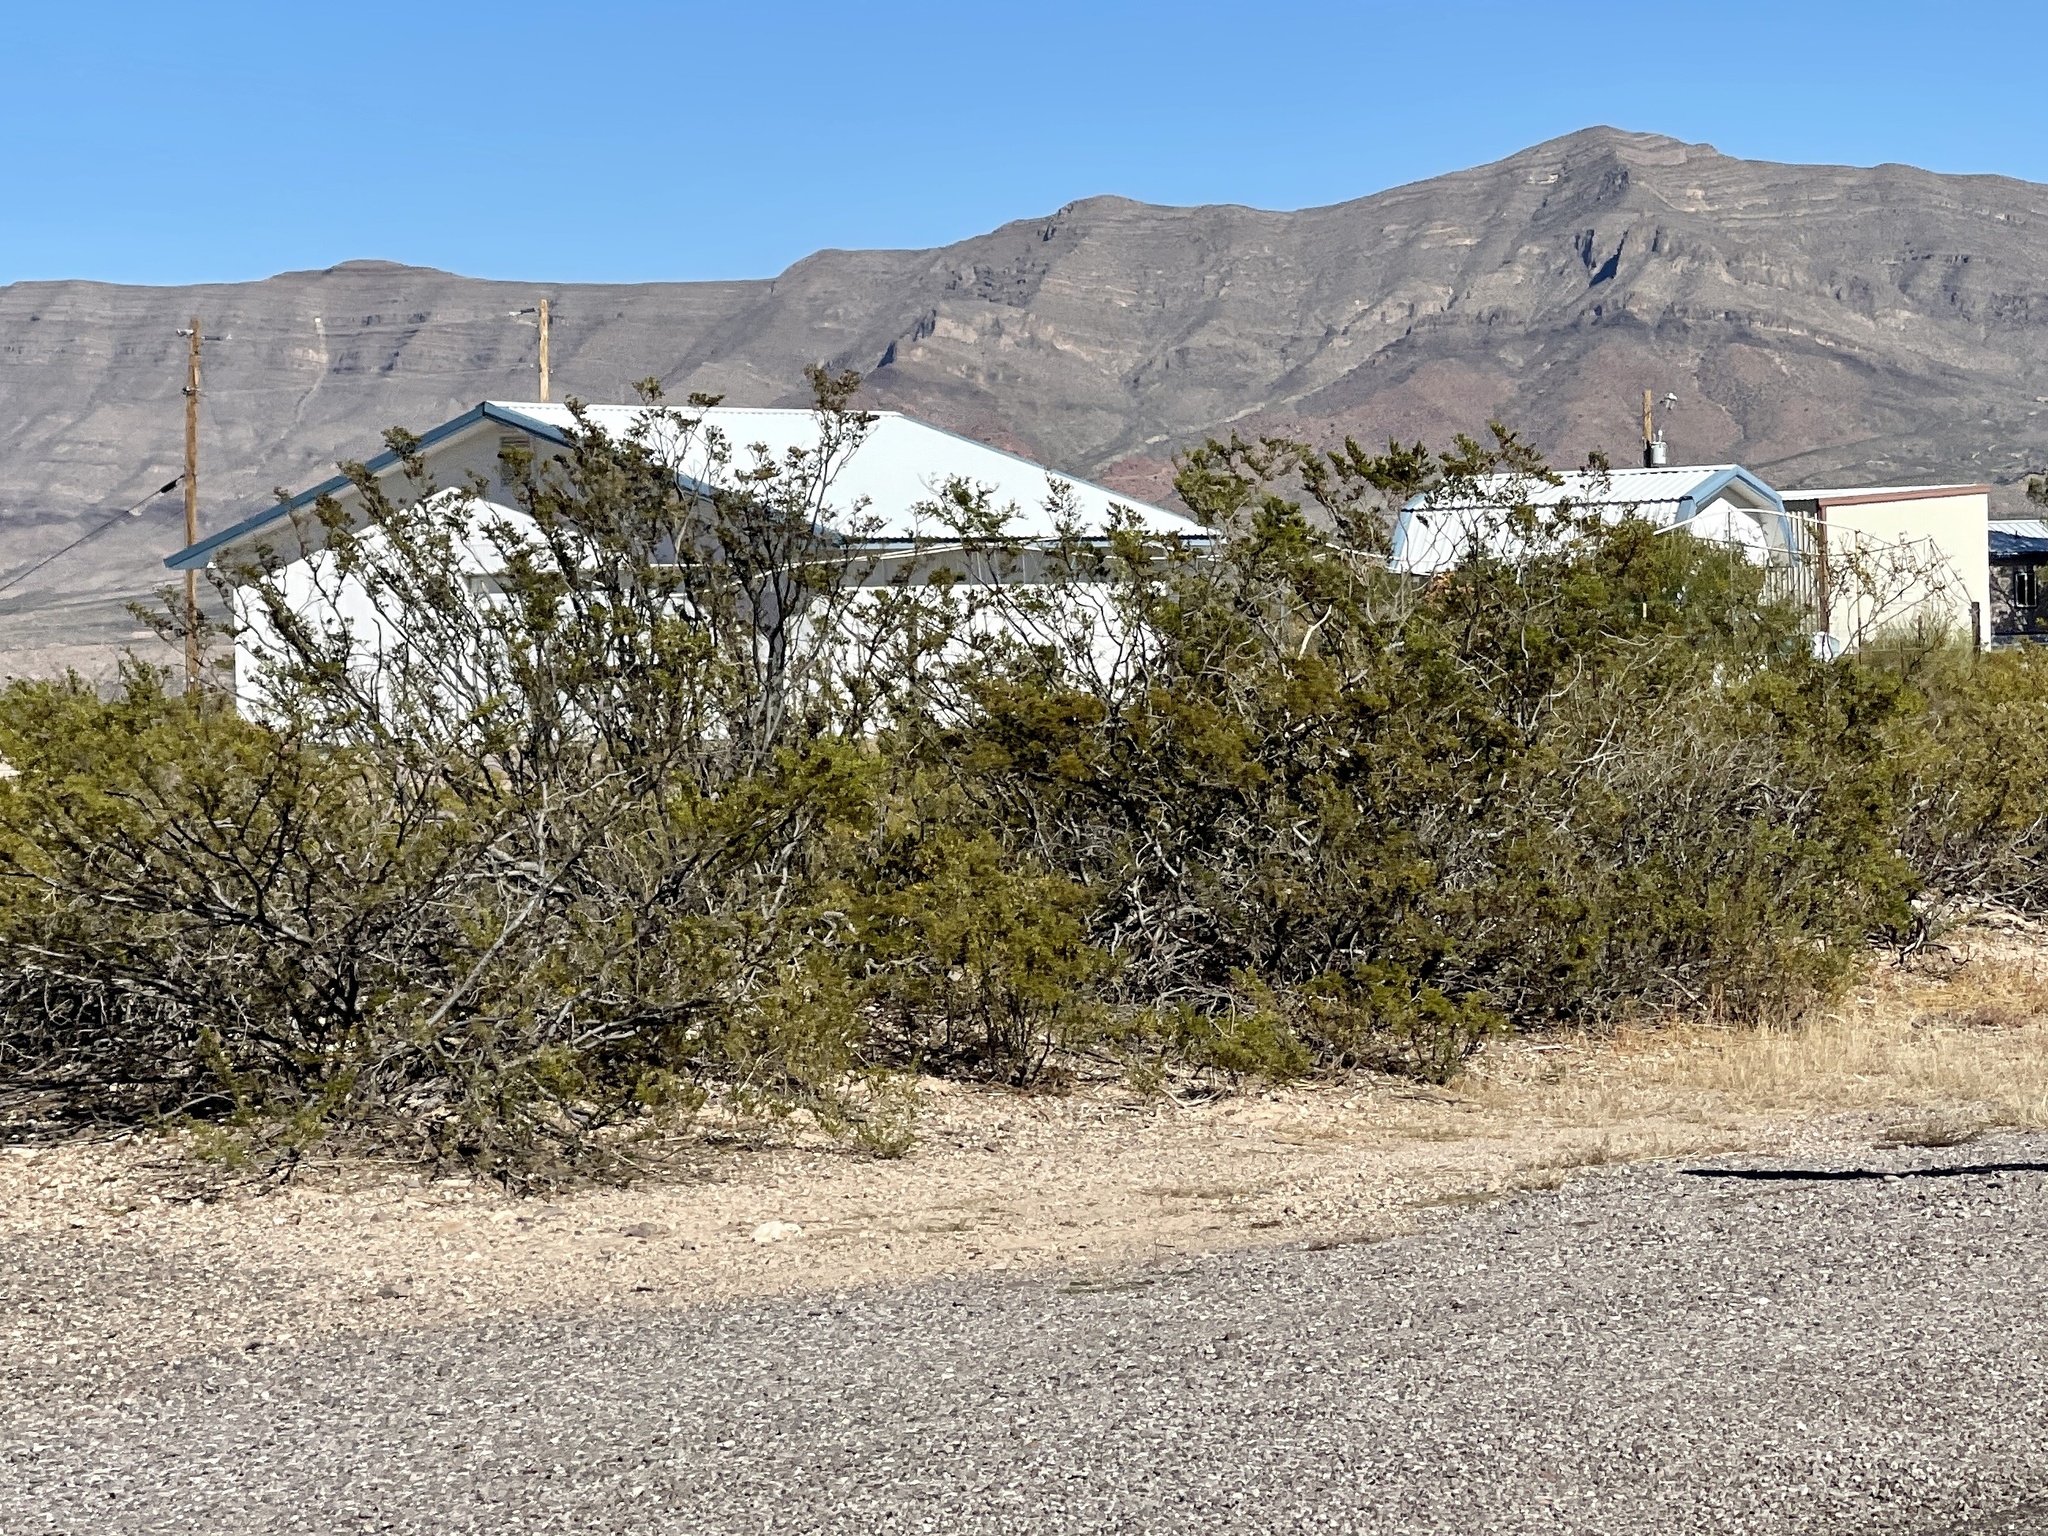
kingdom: Plantae
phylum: Tracheophyta
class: Magnoliopsida
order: Zygophyllales
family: Zygophyllaceae
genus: Larrea
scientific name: Larrea tridentata
